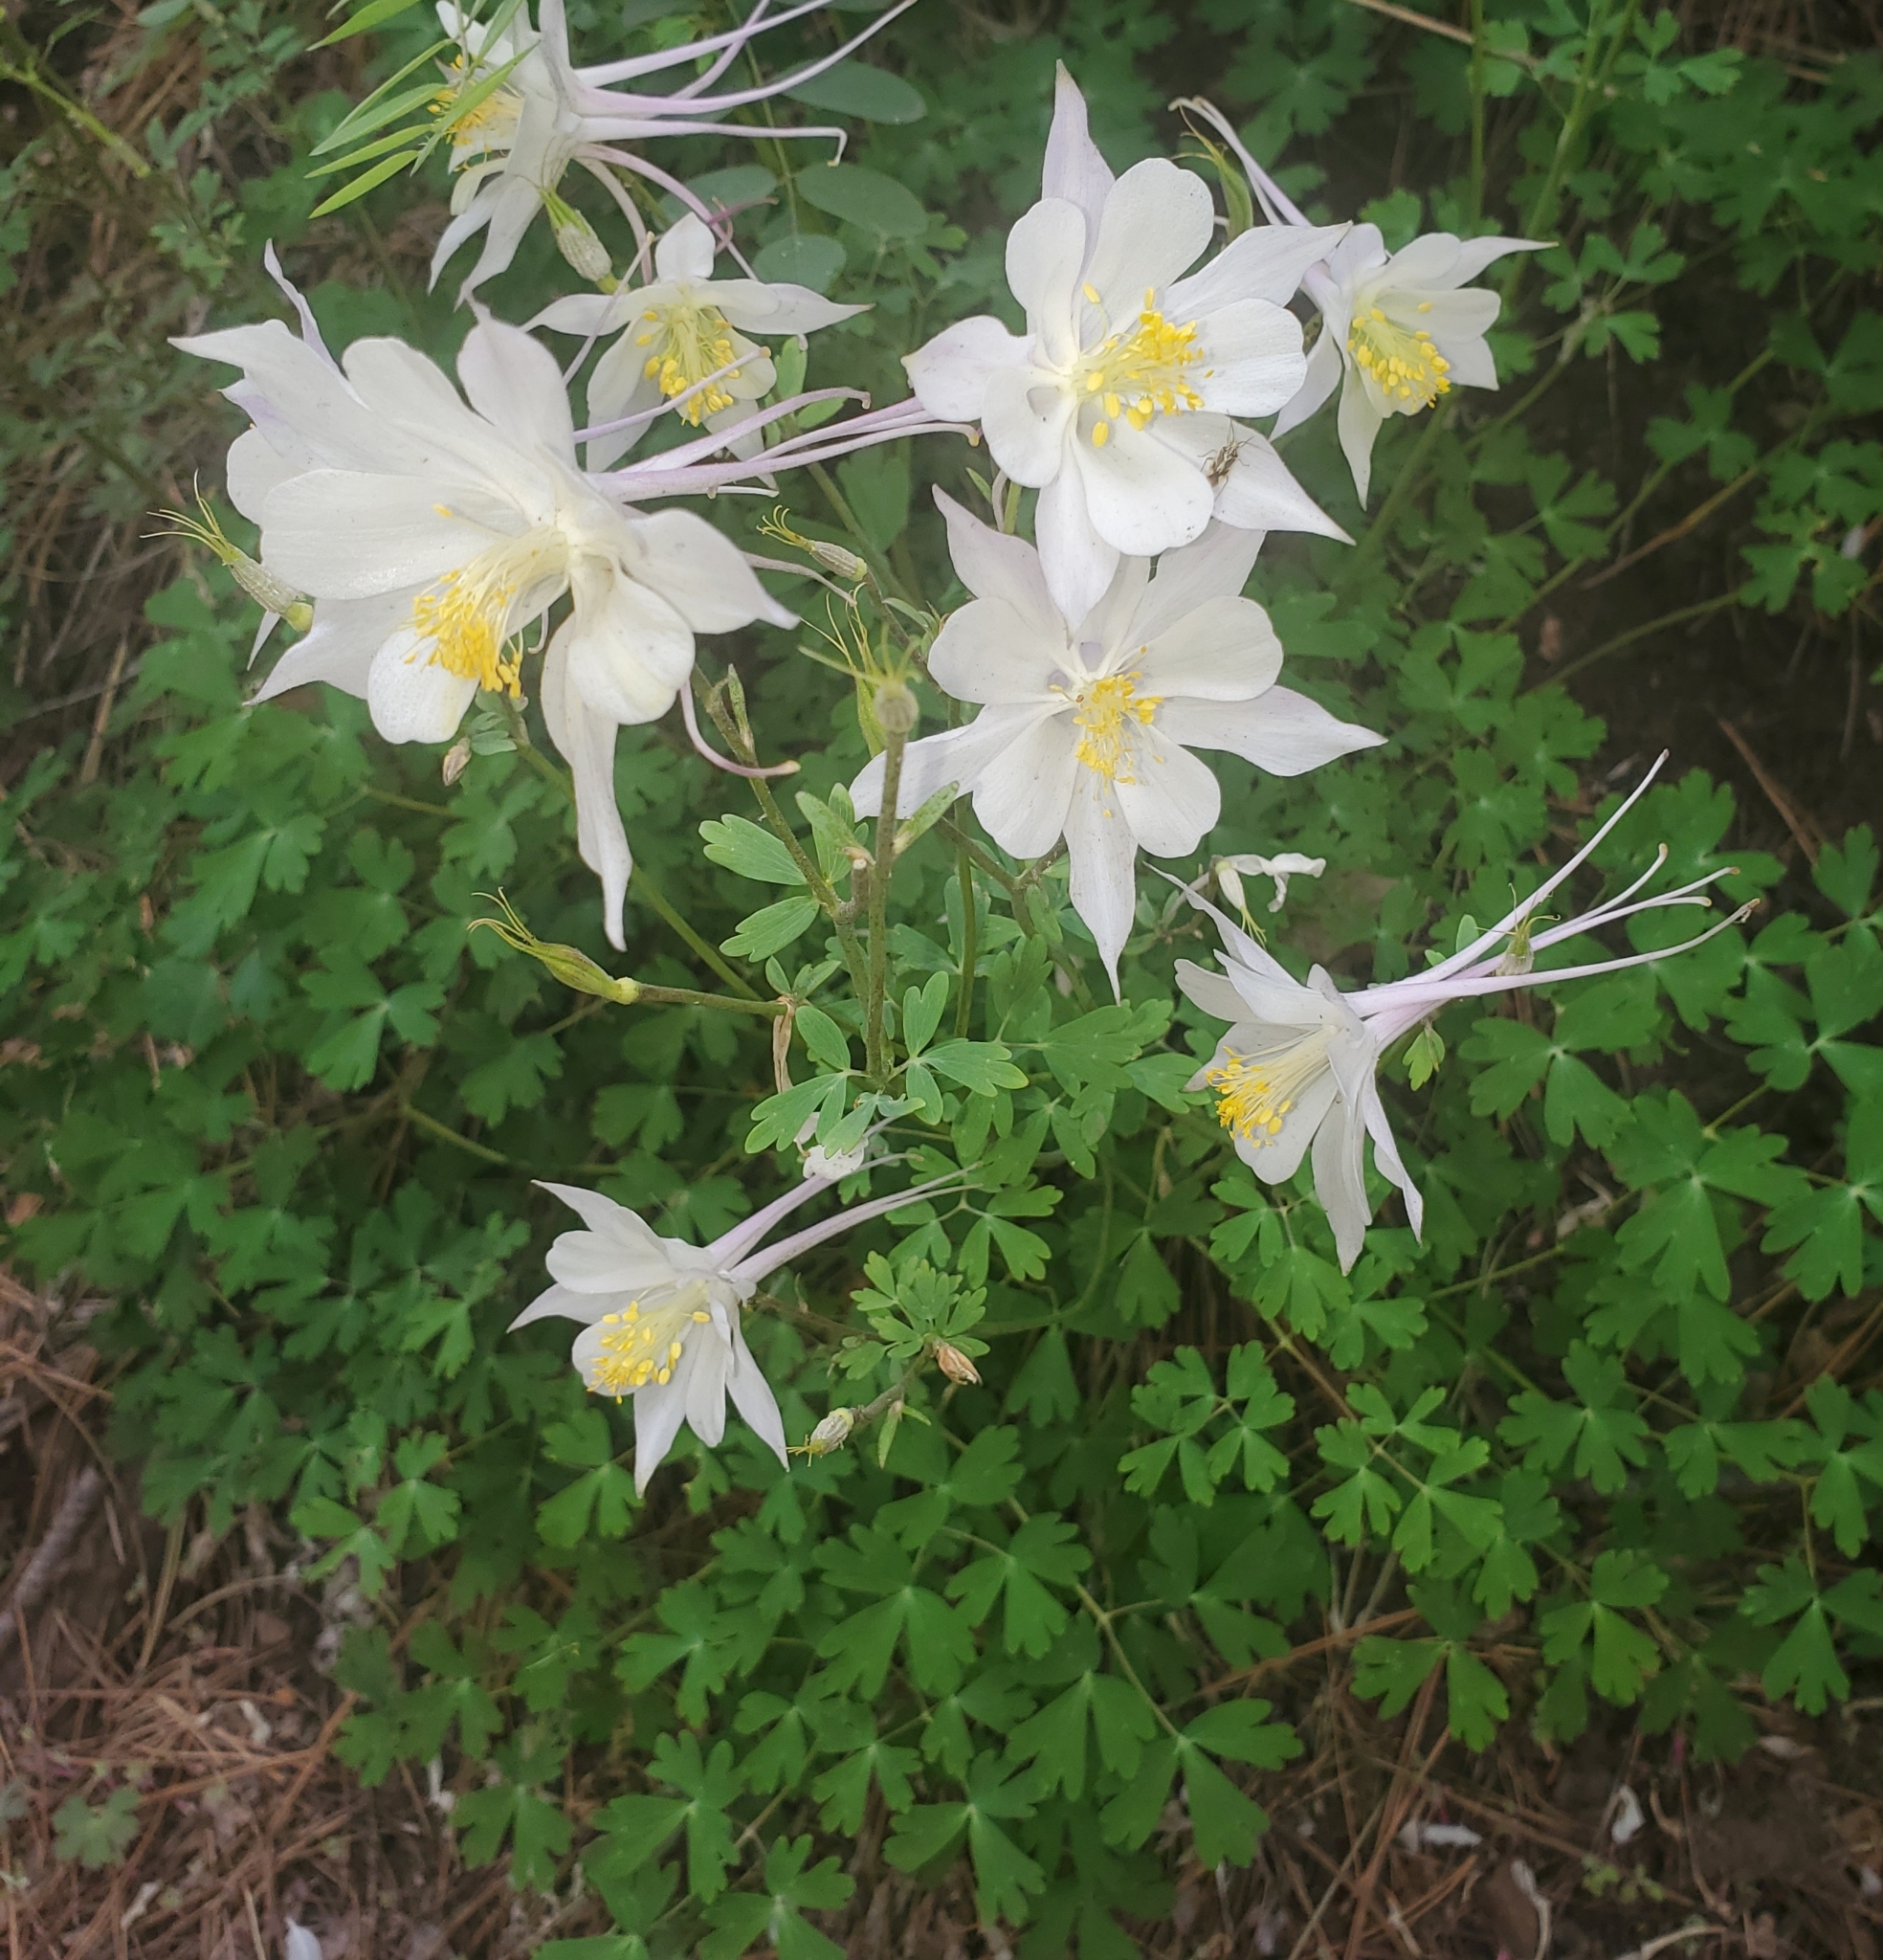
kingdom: Plantae
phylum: Tracheophyta
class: Magnoliopsida
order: Ranunculales
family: Ranunculaceae
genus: Aquilegia
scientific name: Aquilegia coerulea
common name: Rocky mountain columbine
